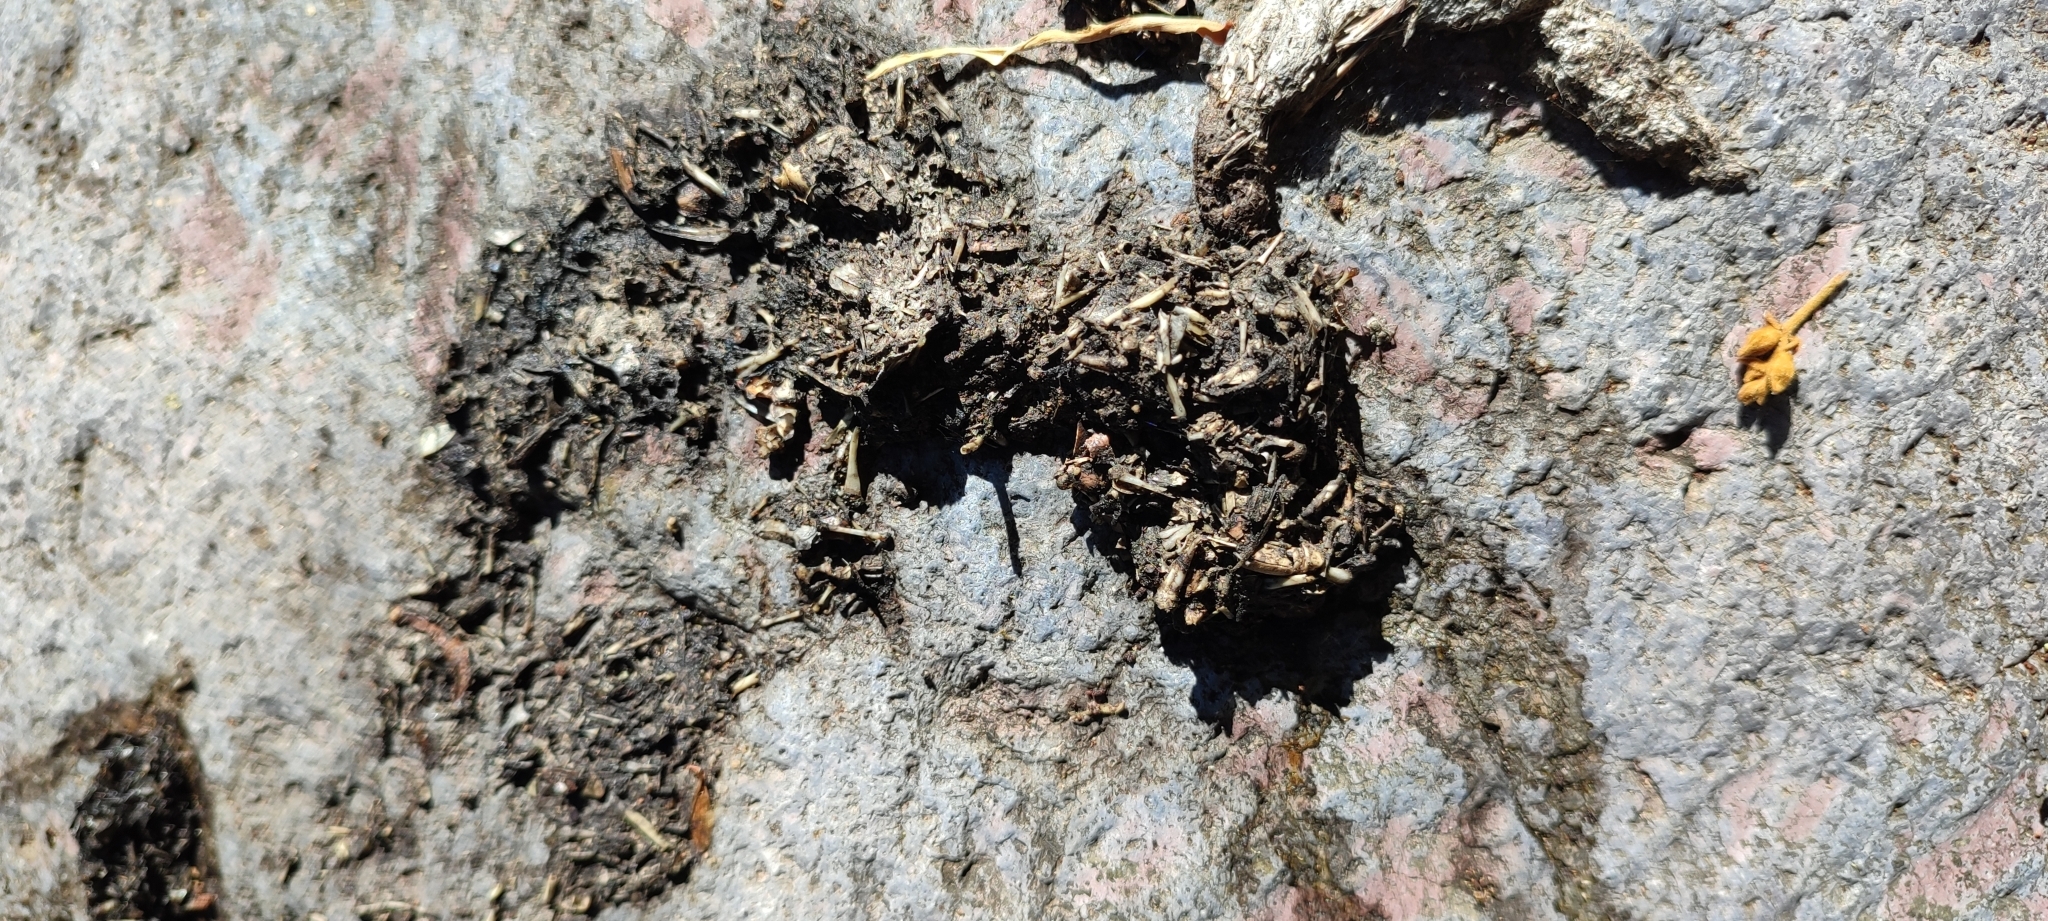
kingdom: Animalia
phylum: Chordata
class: Mammalia
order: Carnivora
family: Mustelidae
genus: Lontra
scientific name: Lontra longicaudis
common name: Neotropical otter
